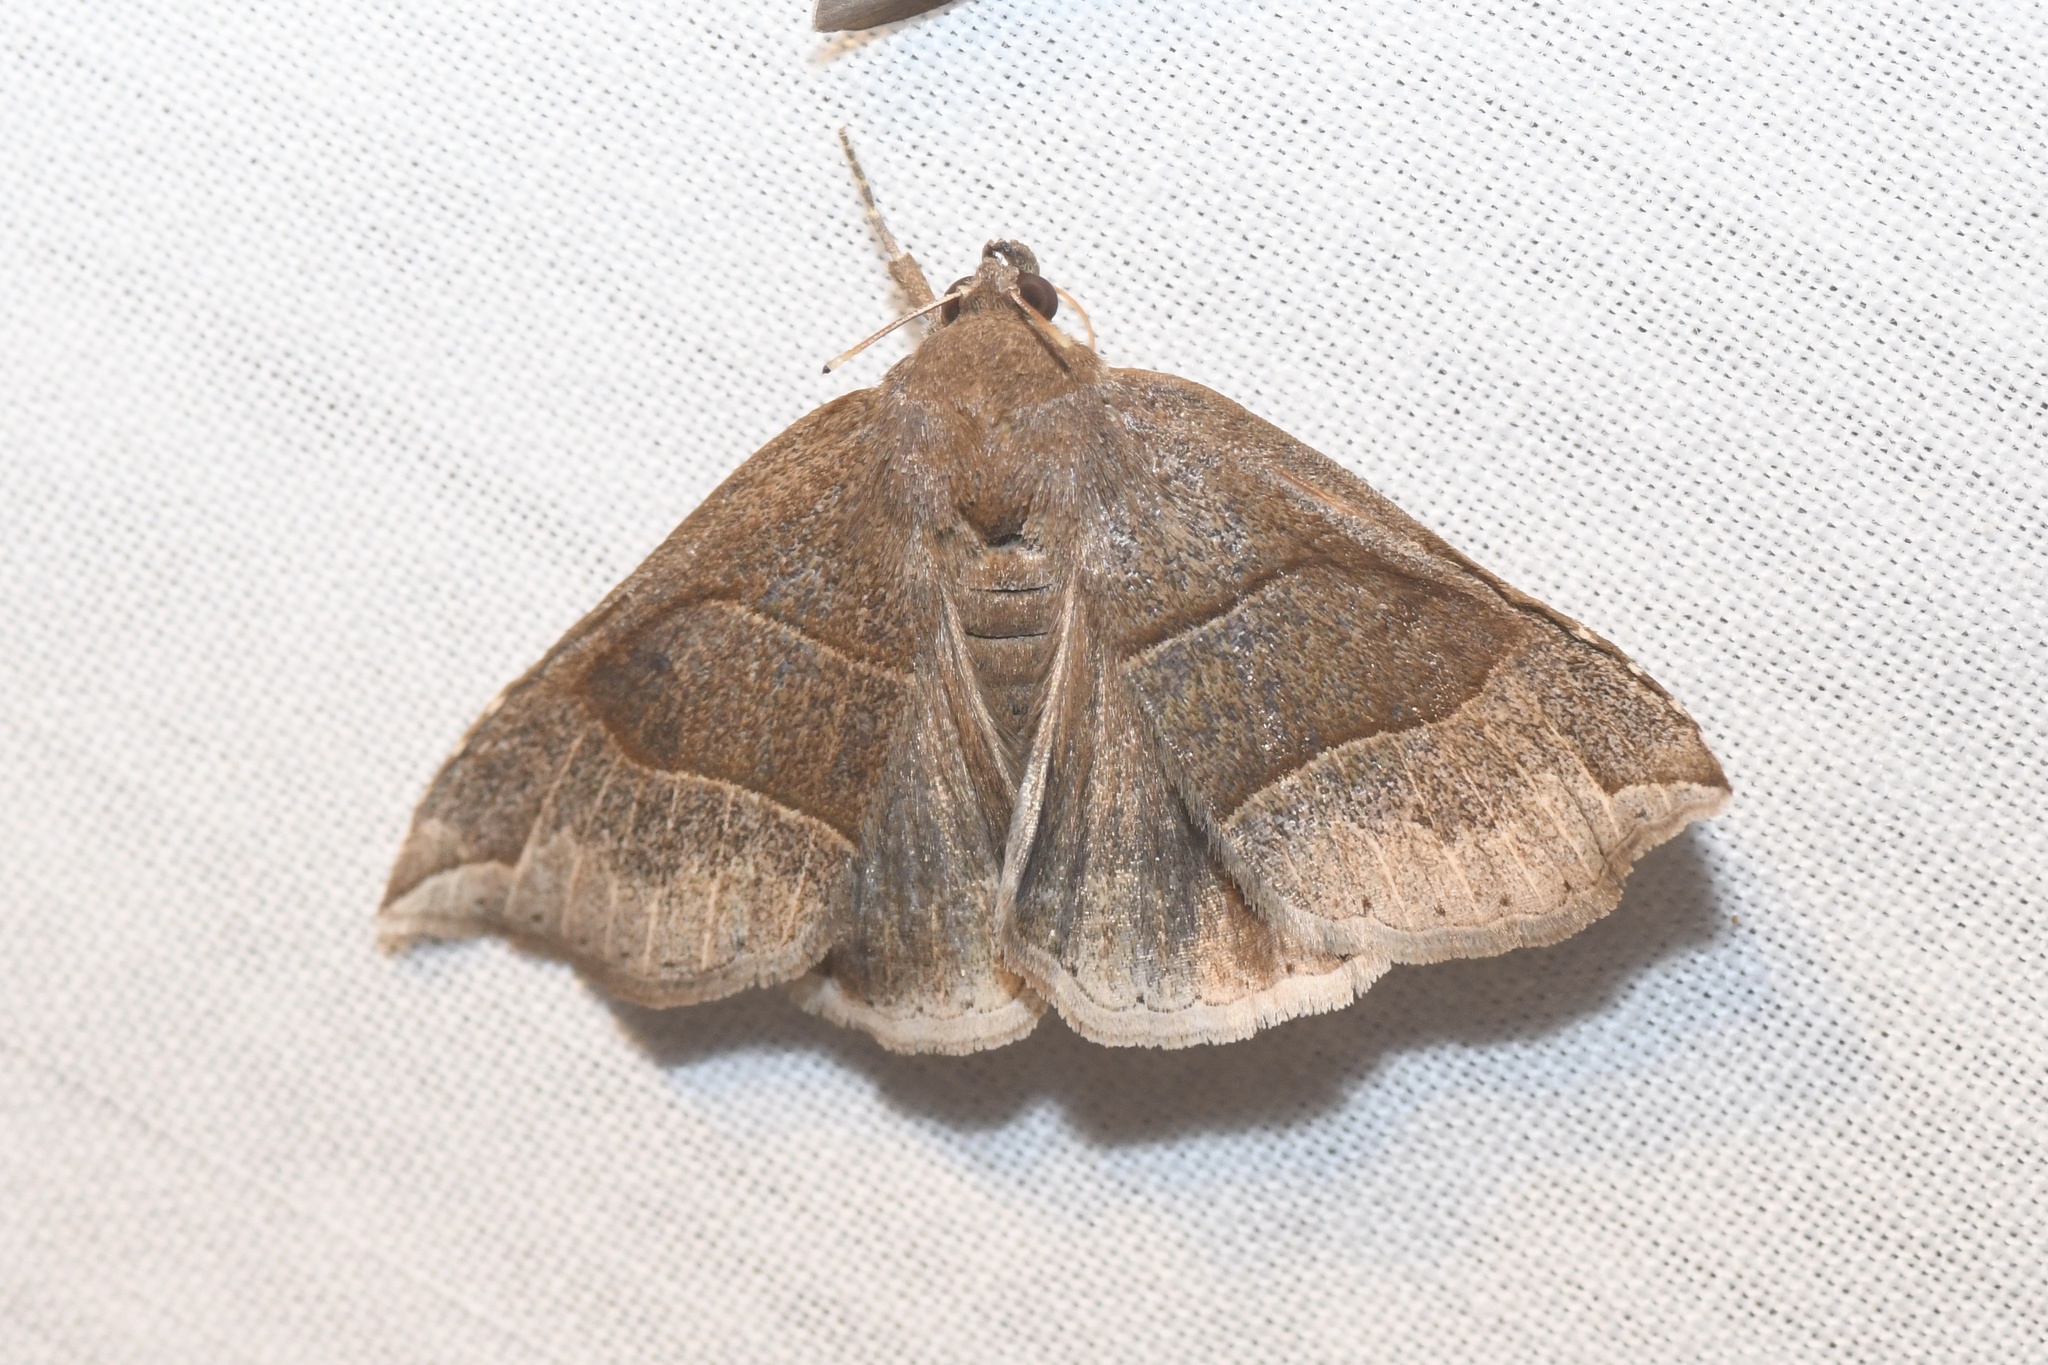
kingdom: Animalia
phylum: Arthropoda
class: Insecta
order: Lepidoptera
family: Erebidae
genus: Parallelia
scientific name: Parallelia bistriaris
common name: Maple looper moth
